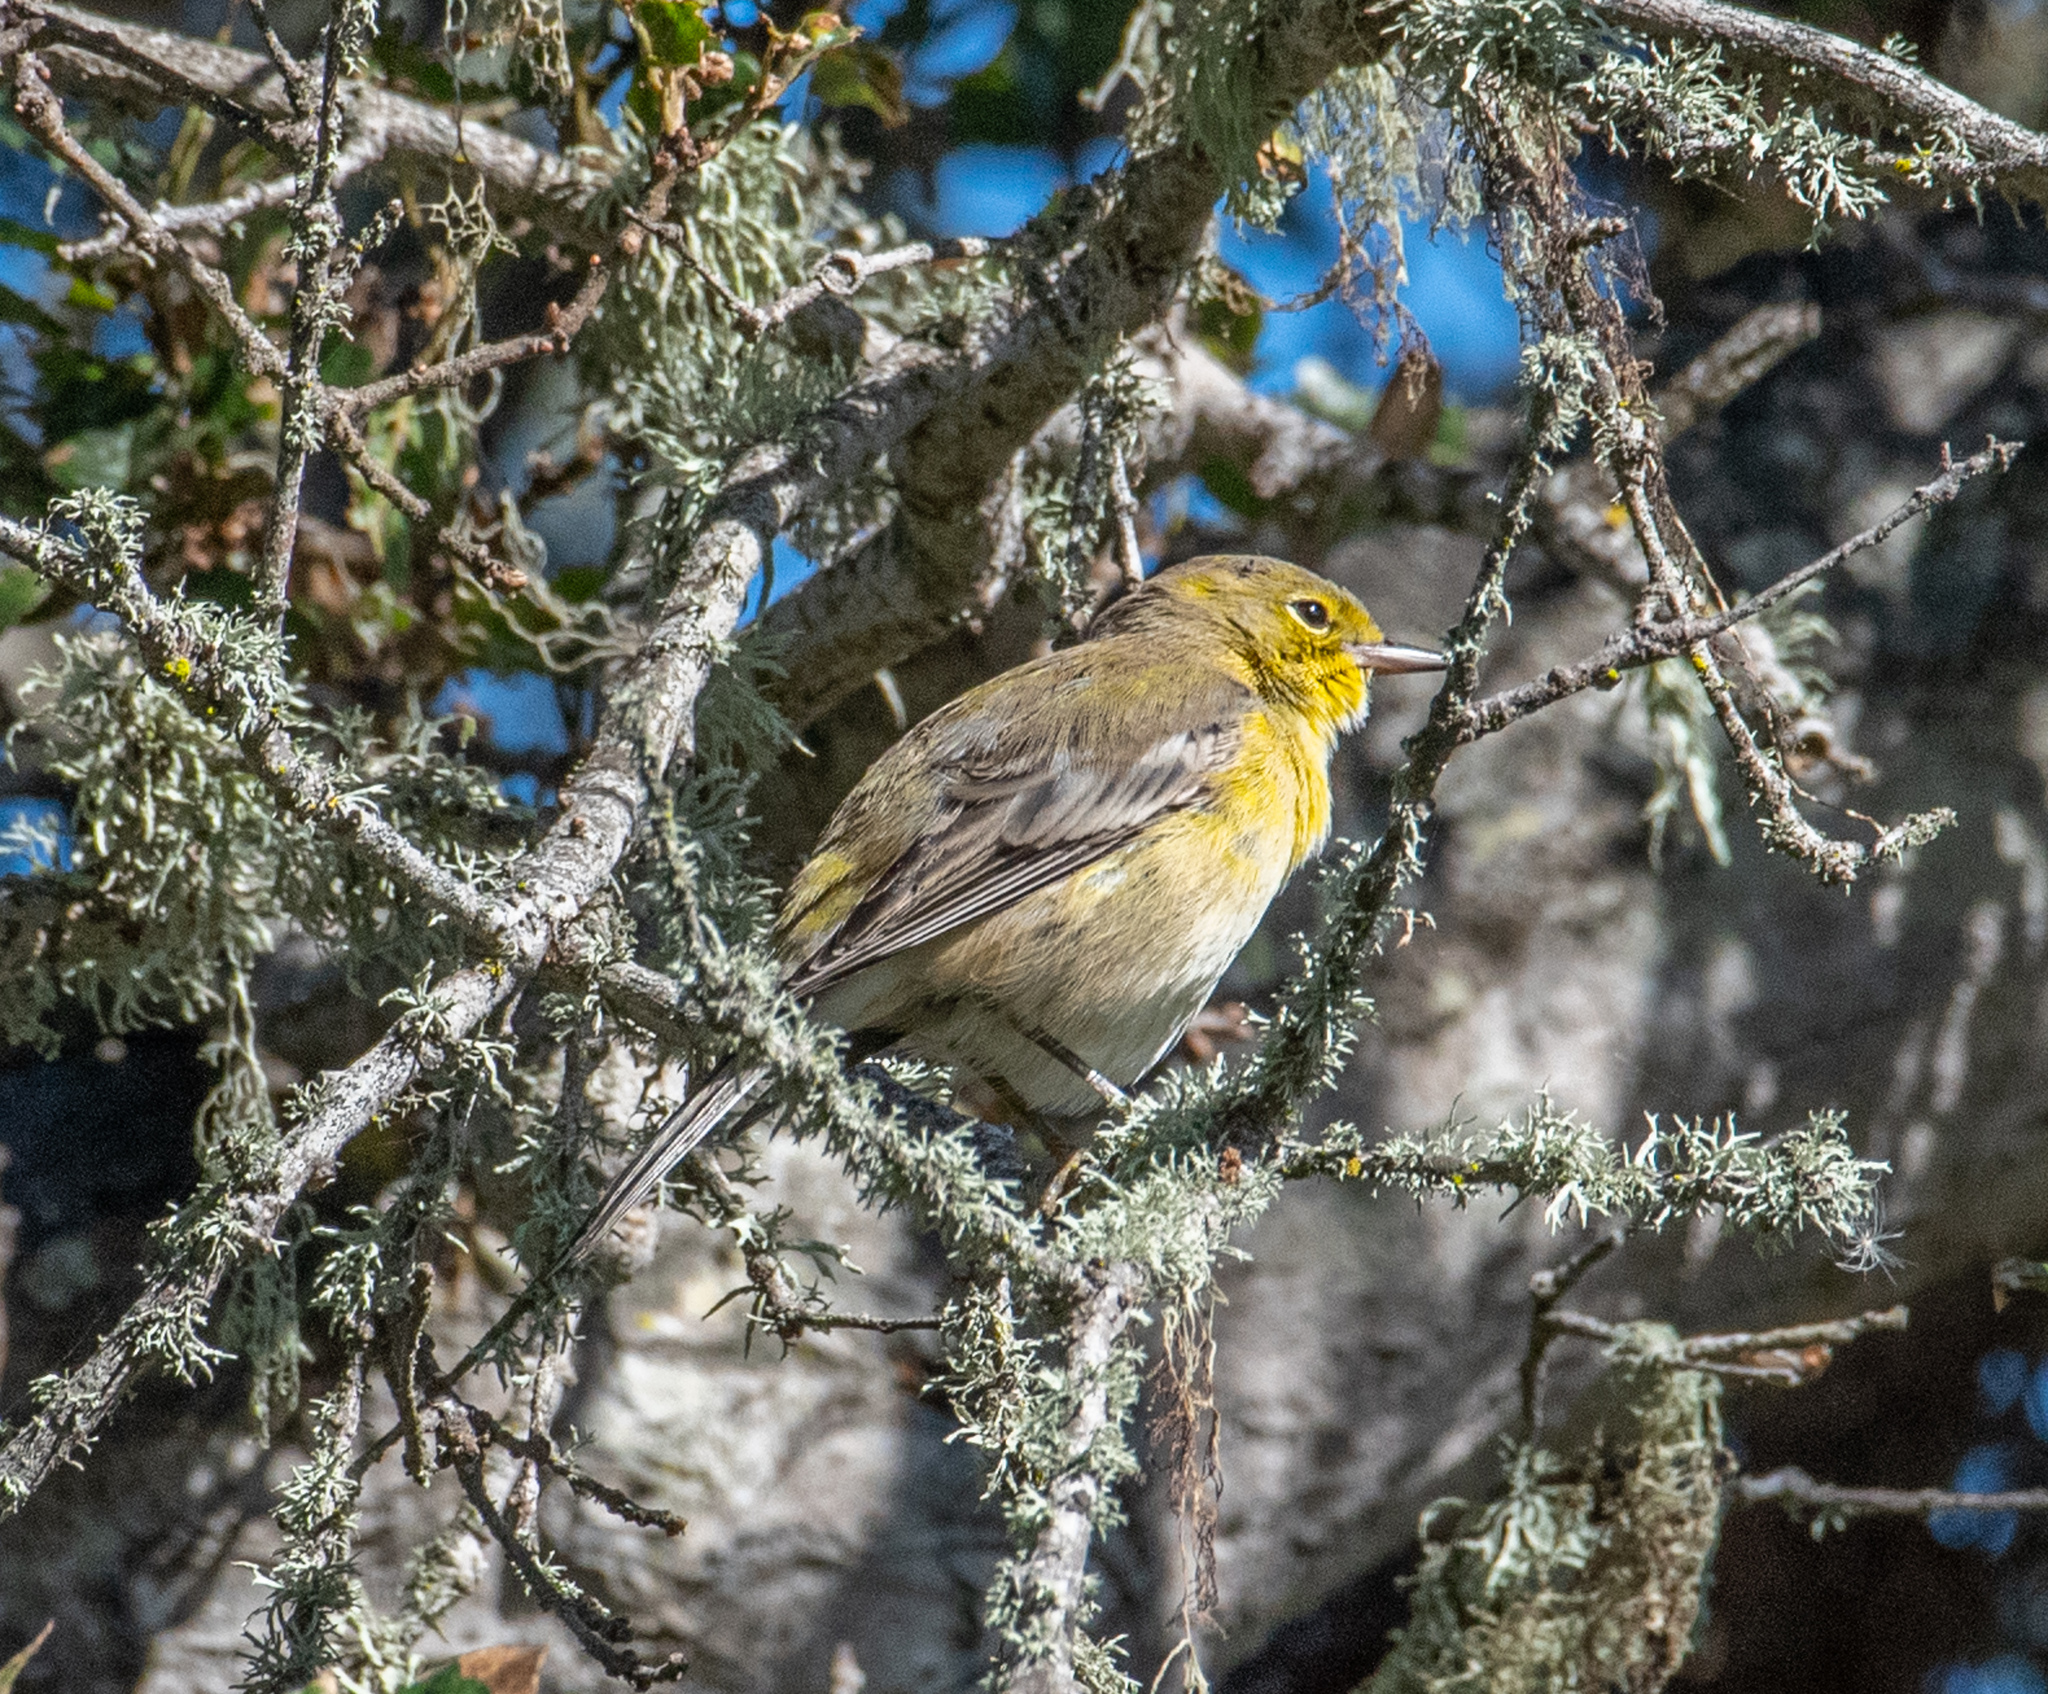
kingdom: Animalia
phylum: Chordata
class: Aves
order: Passeriformes
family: Parulidae
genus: Setophaga
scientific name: Setophaga pinus
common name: Pine warbler
